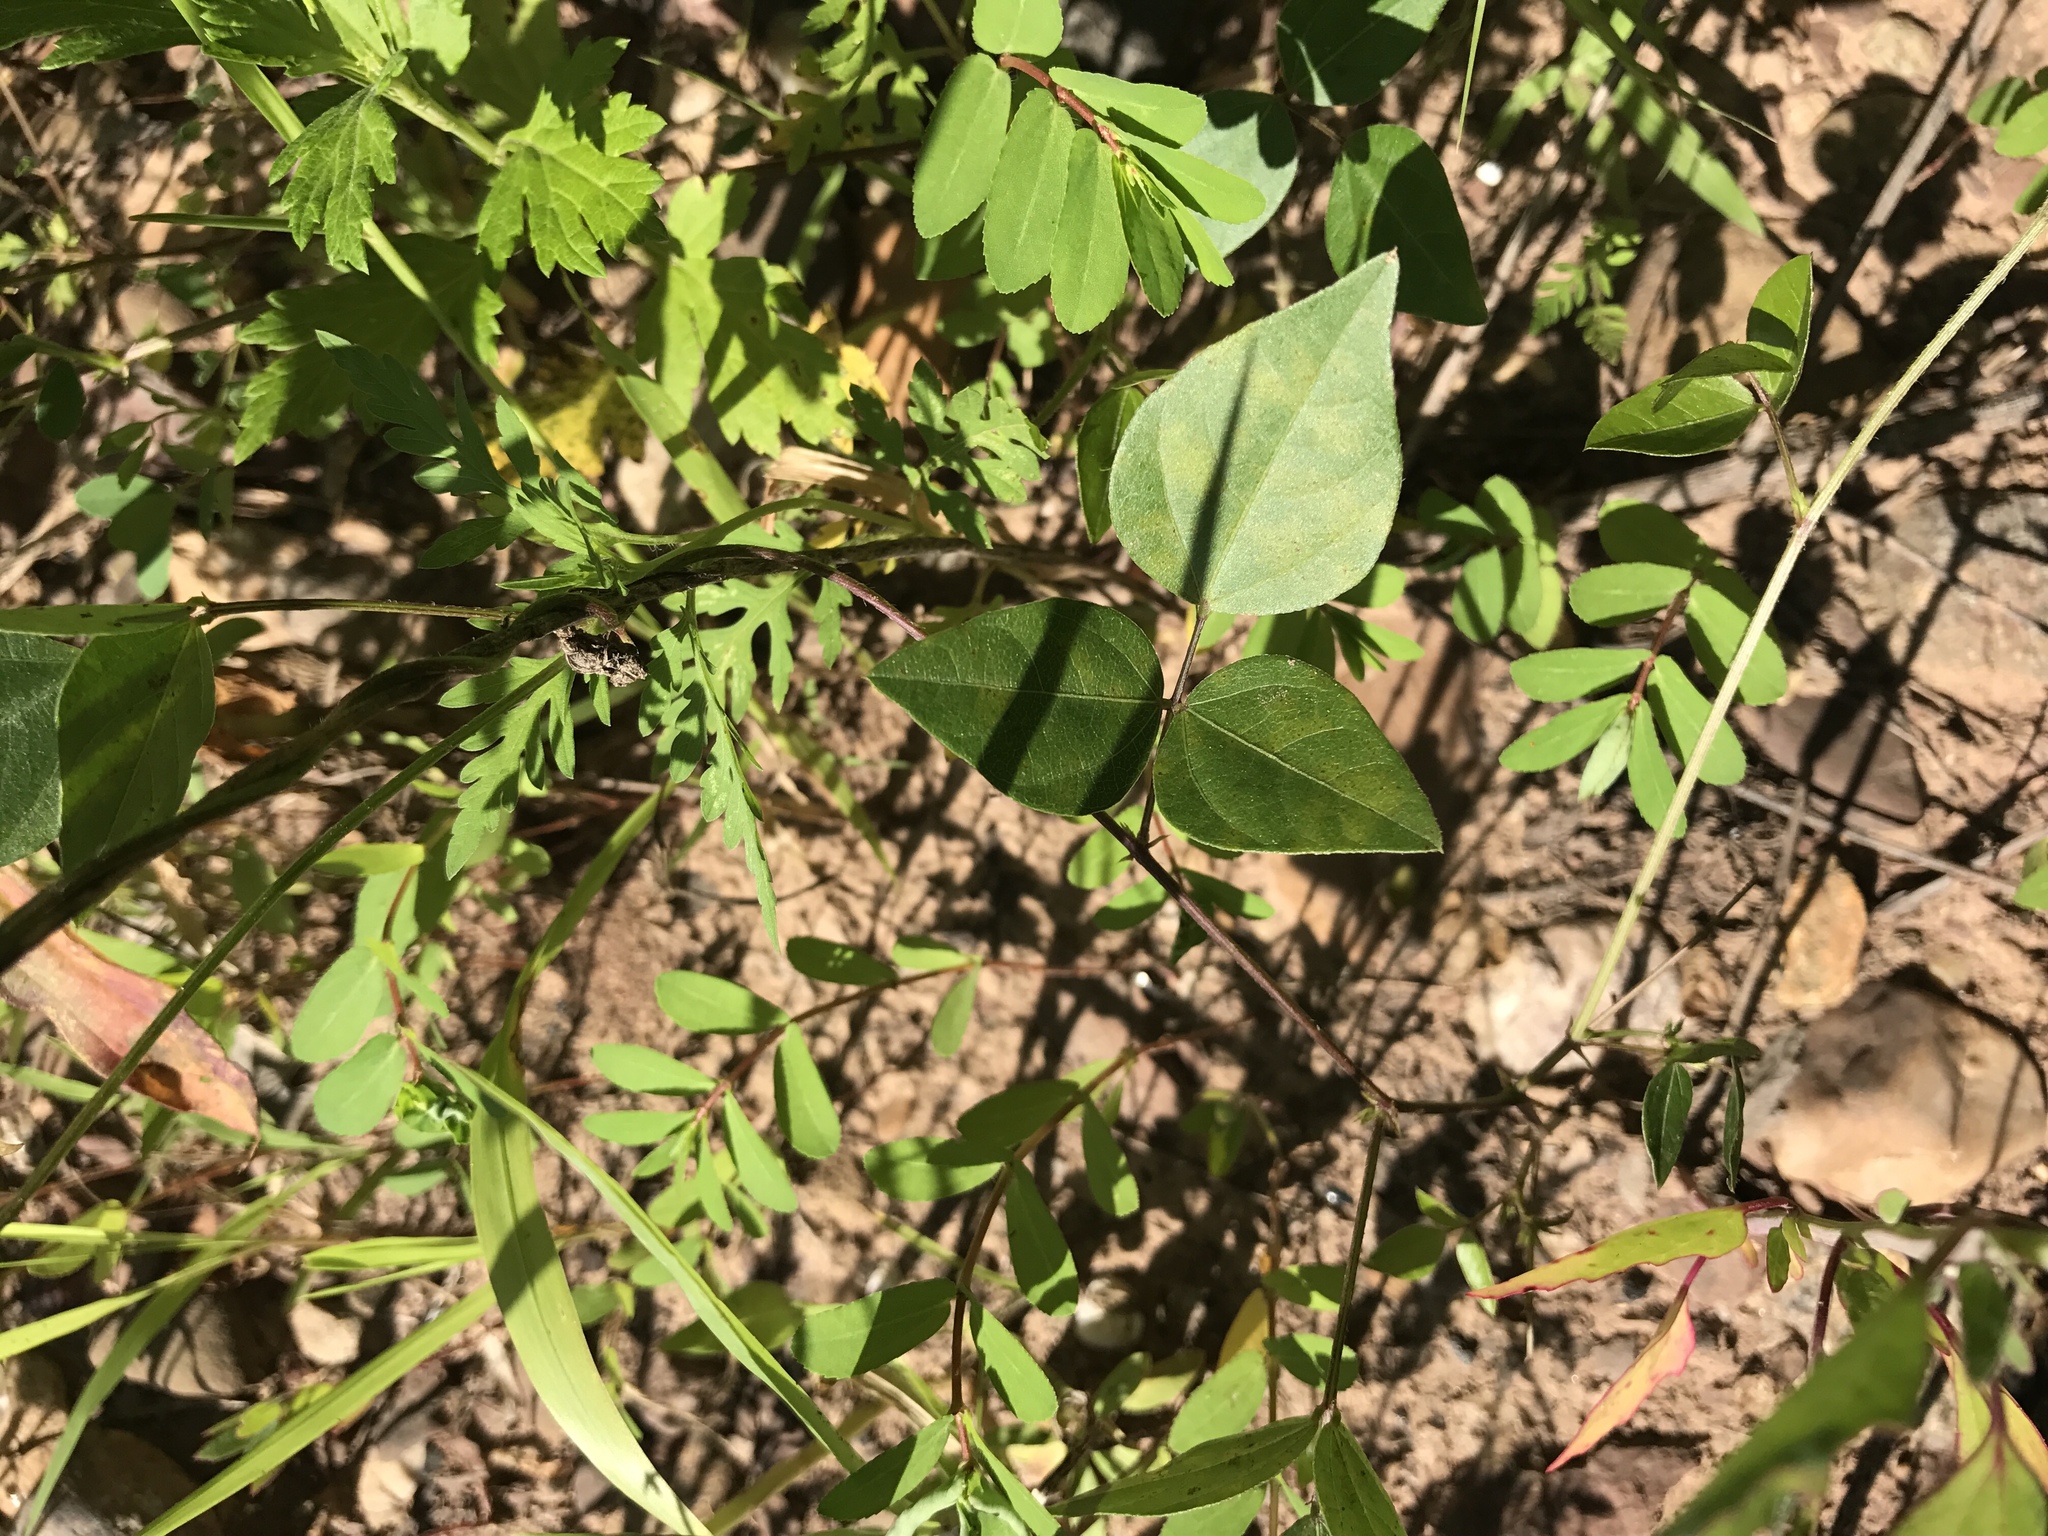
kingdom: Plantae
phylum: Tracheophyta
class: Magnoliopsida
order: Fabales
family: Fabaceae
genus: Strophostyles
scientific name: Strophostyles helvola
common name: Trailing wild bean
